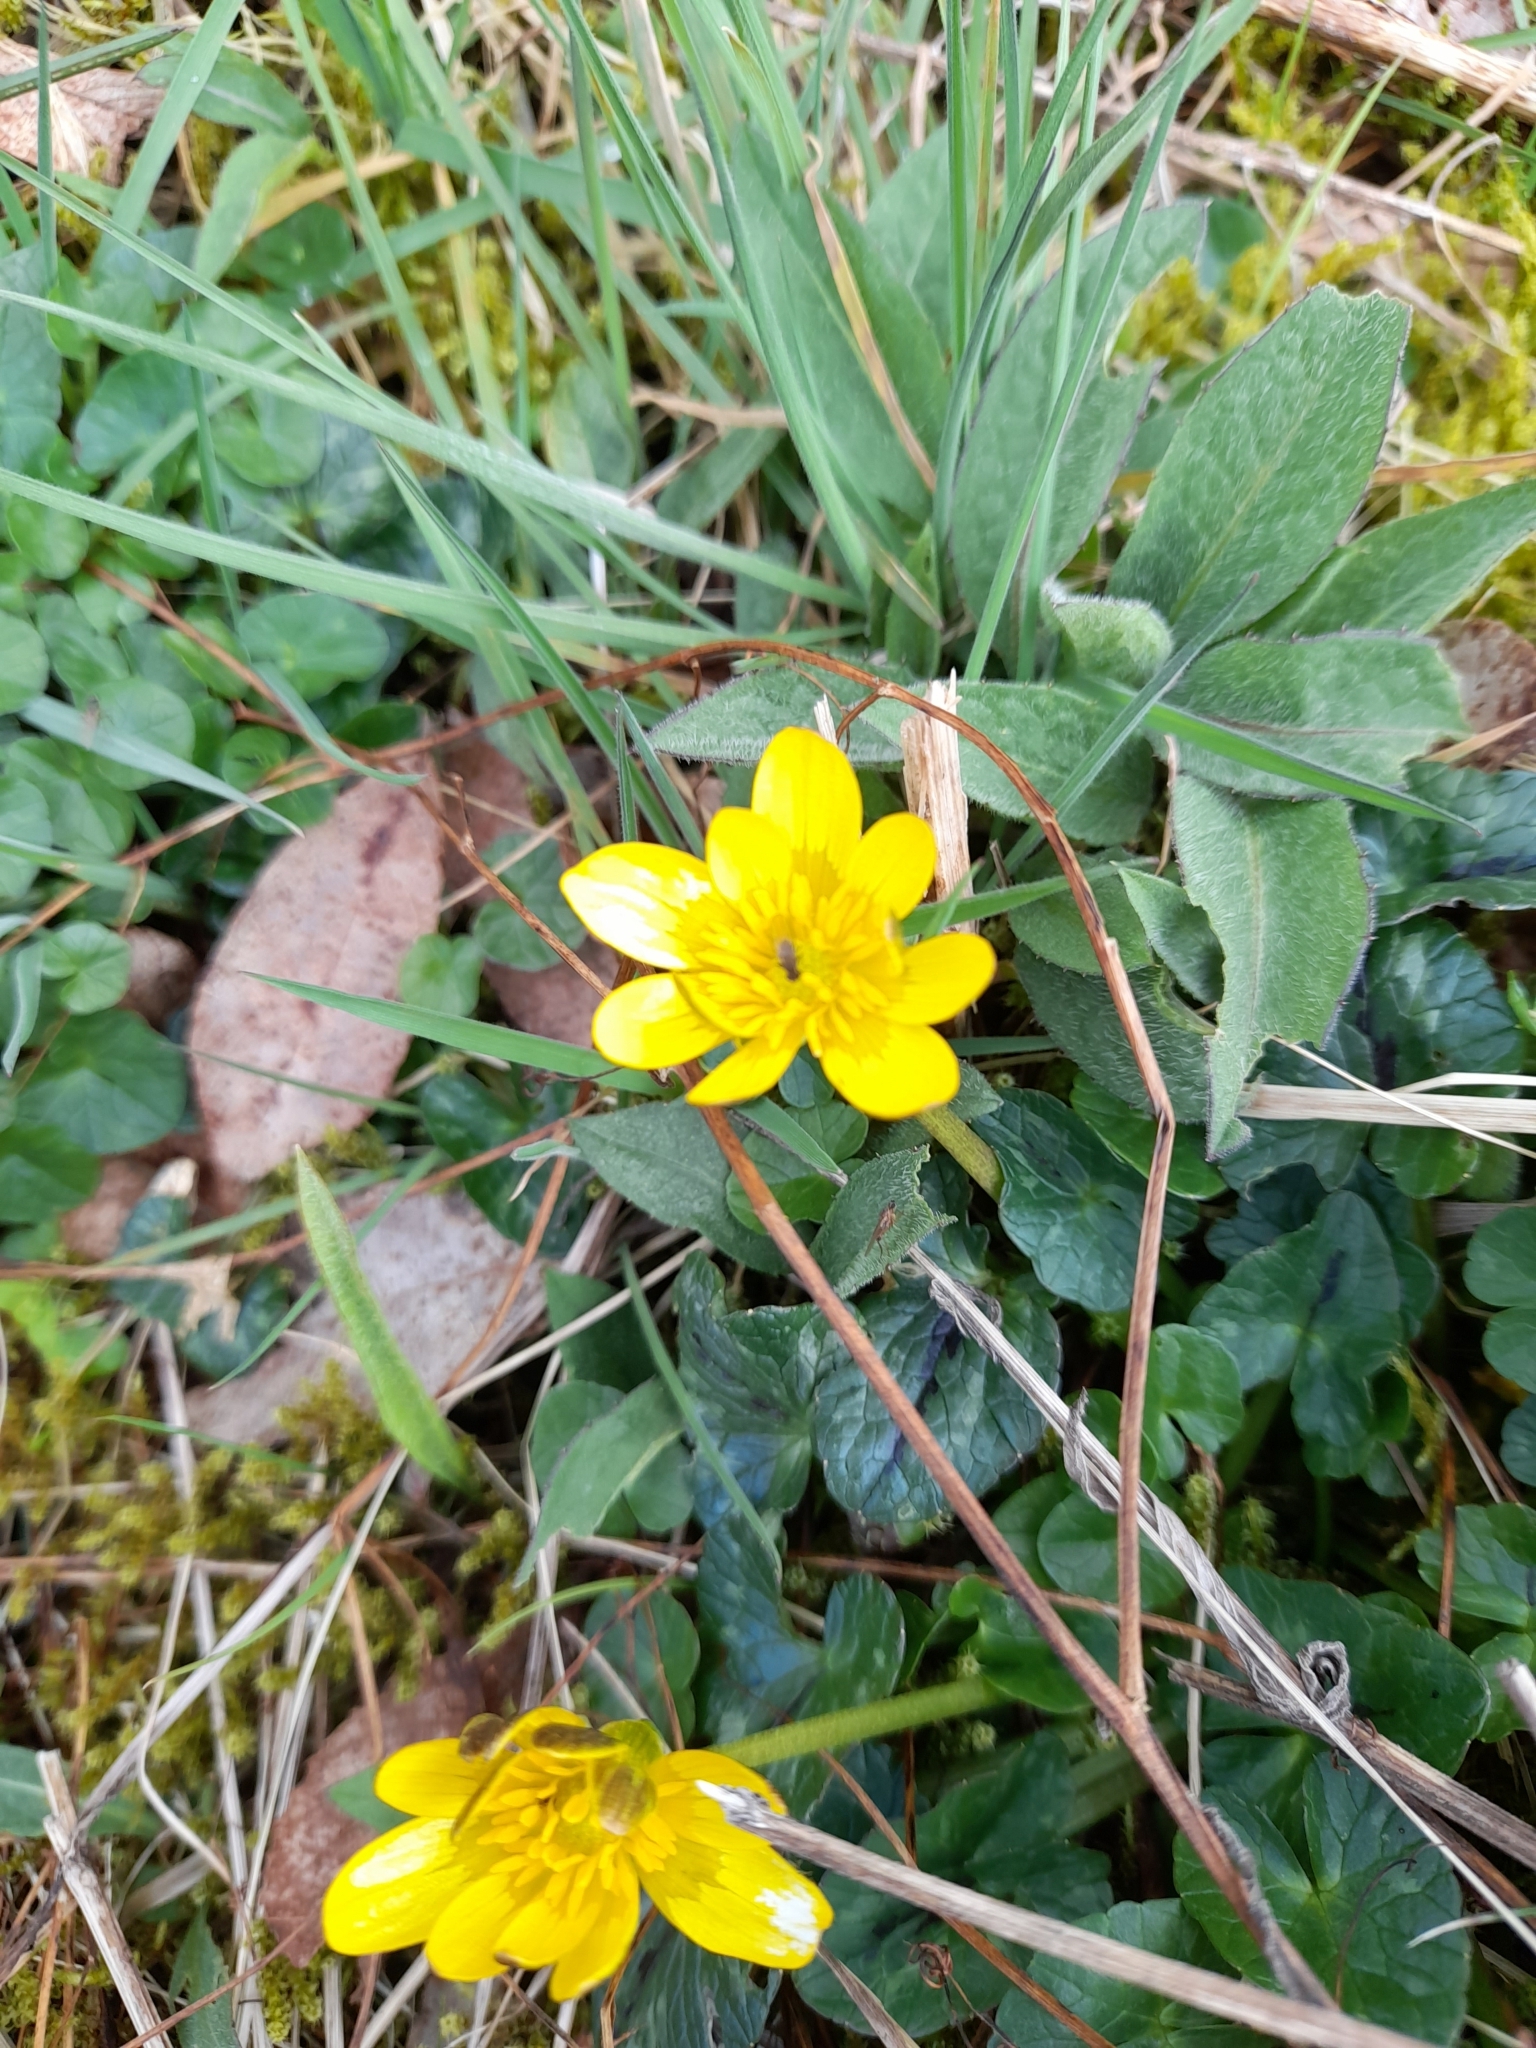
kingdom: Plantae
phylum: Tracheophyta
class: Magnoliopsida
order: Ranunculales
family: Ranunculaceae
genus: Ficaria
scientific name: Ficaria verna
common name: Lesser celandine
